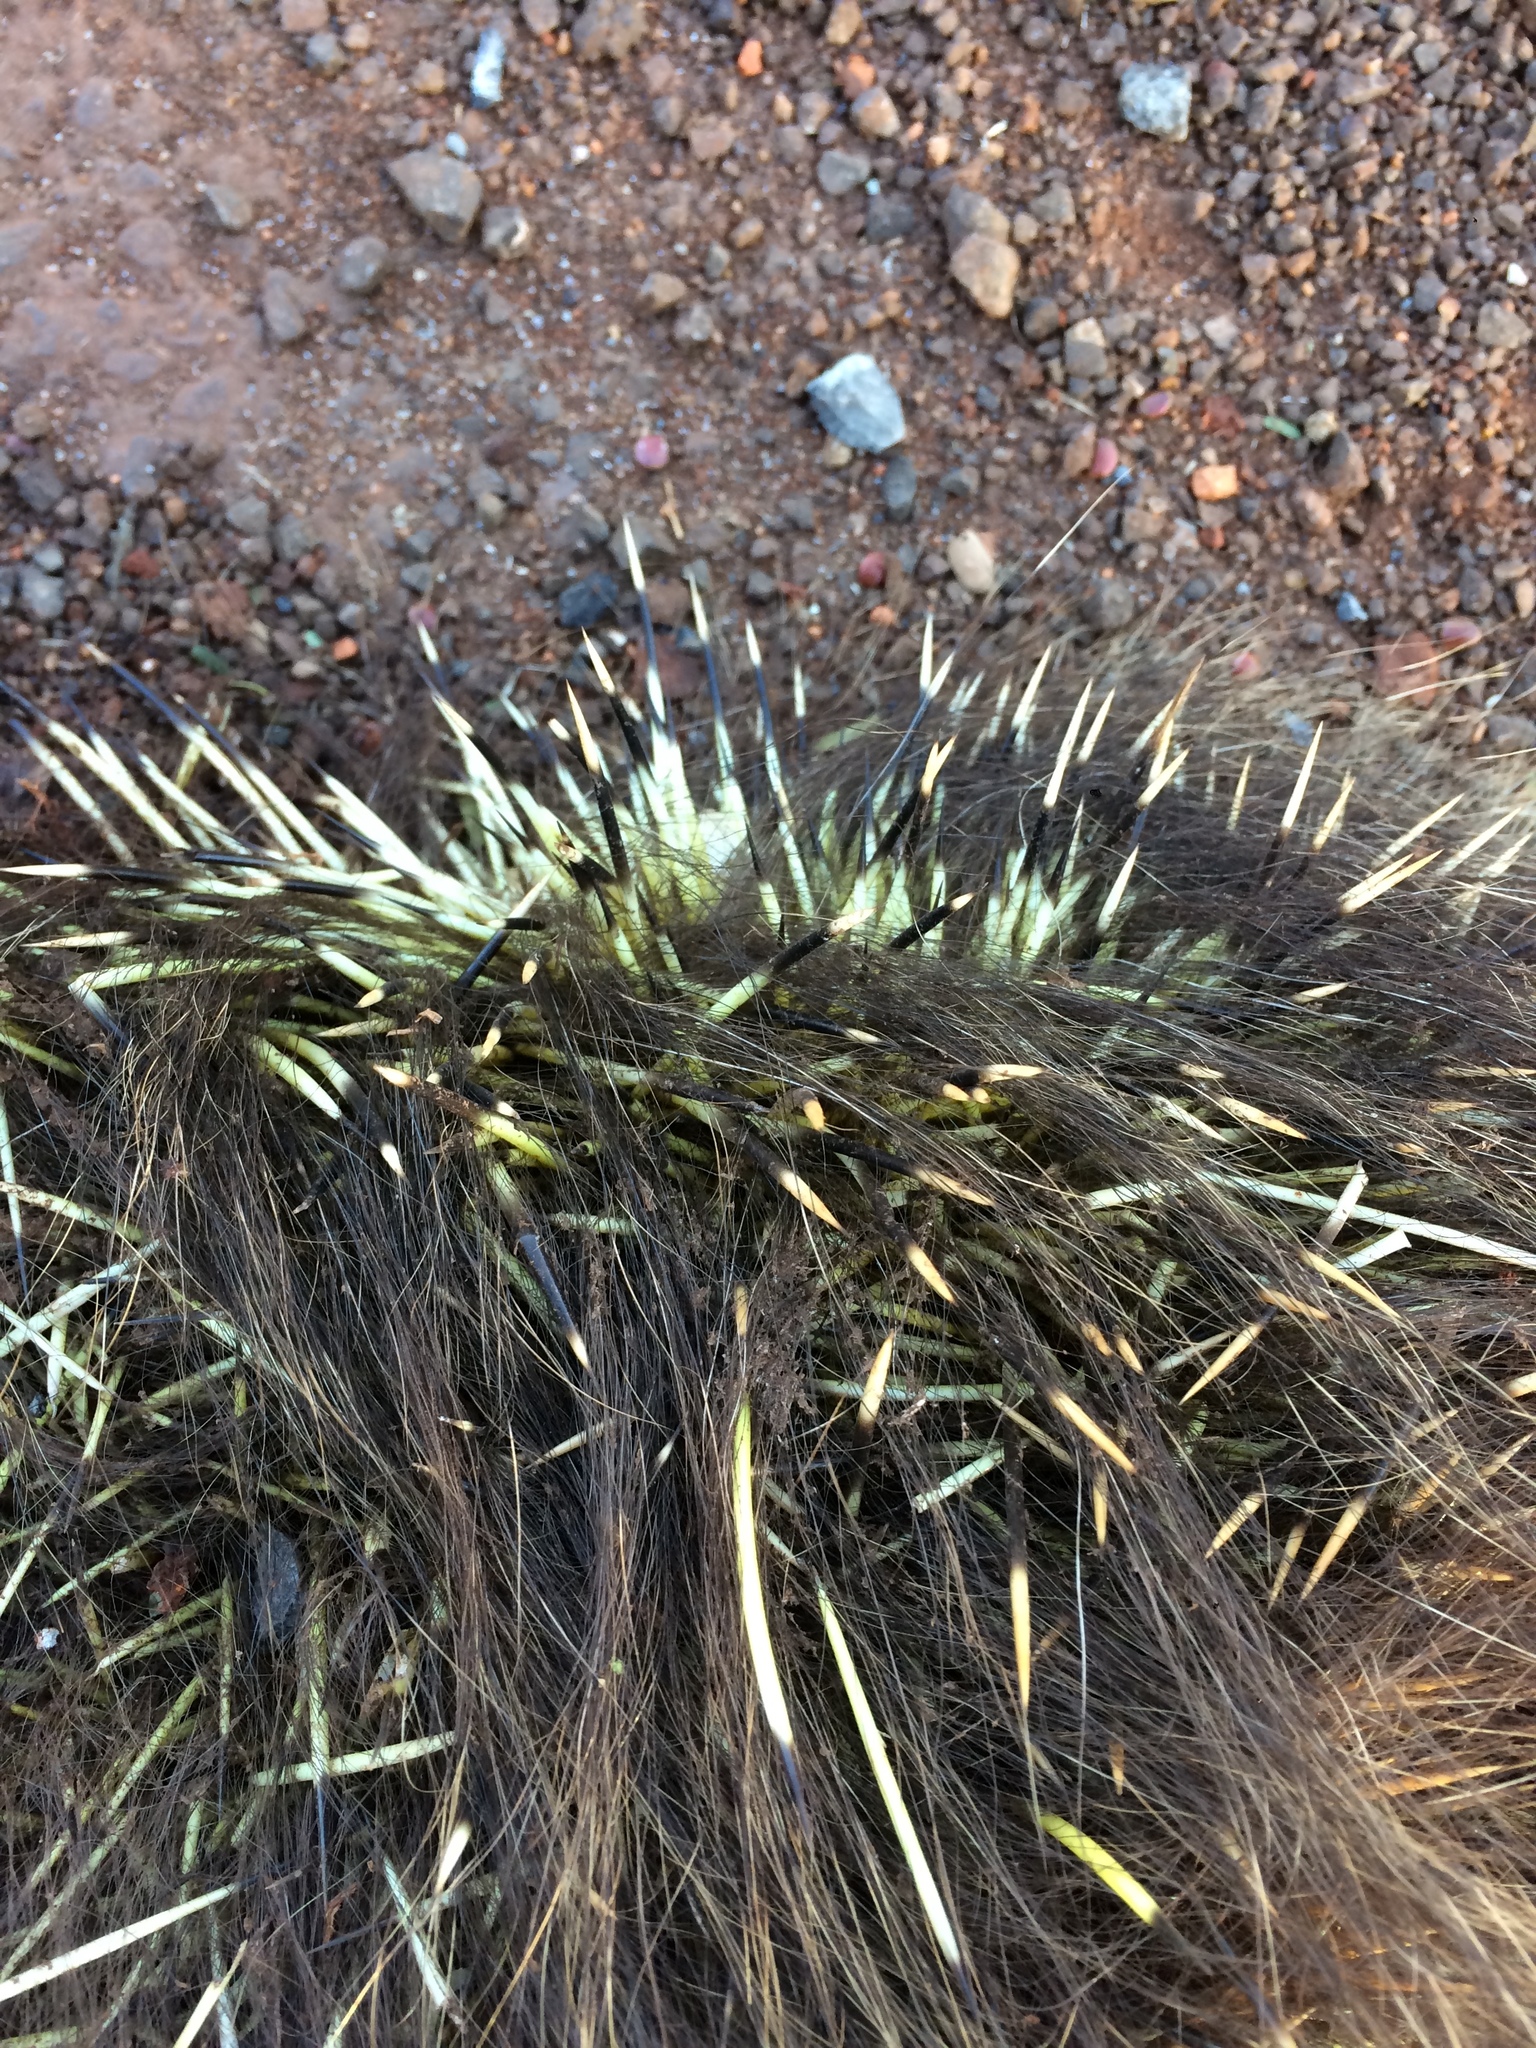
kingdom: Animalia
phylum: Chordata
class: Mammalia
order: Rodentia
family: Erethizontidae
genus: Sphiggurus
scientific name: Sphiggurus spinosus
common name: Paraguaian hairy dwarf porcupine
